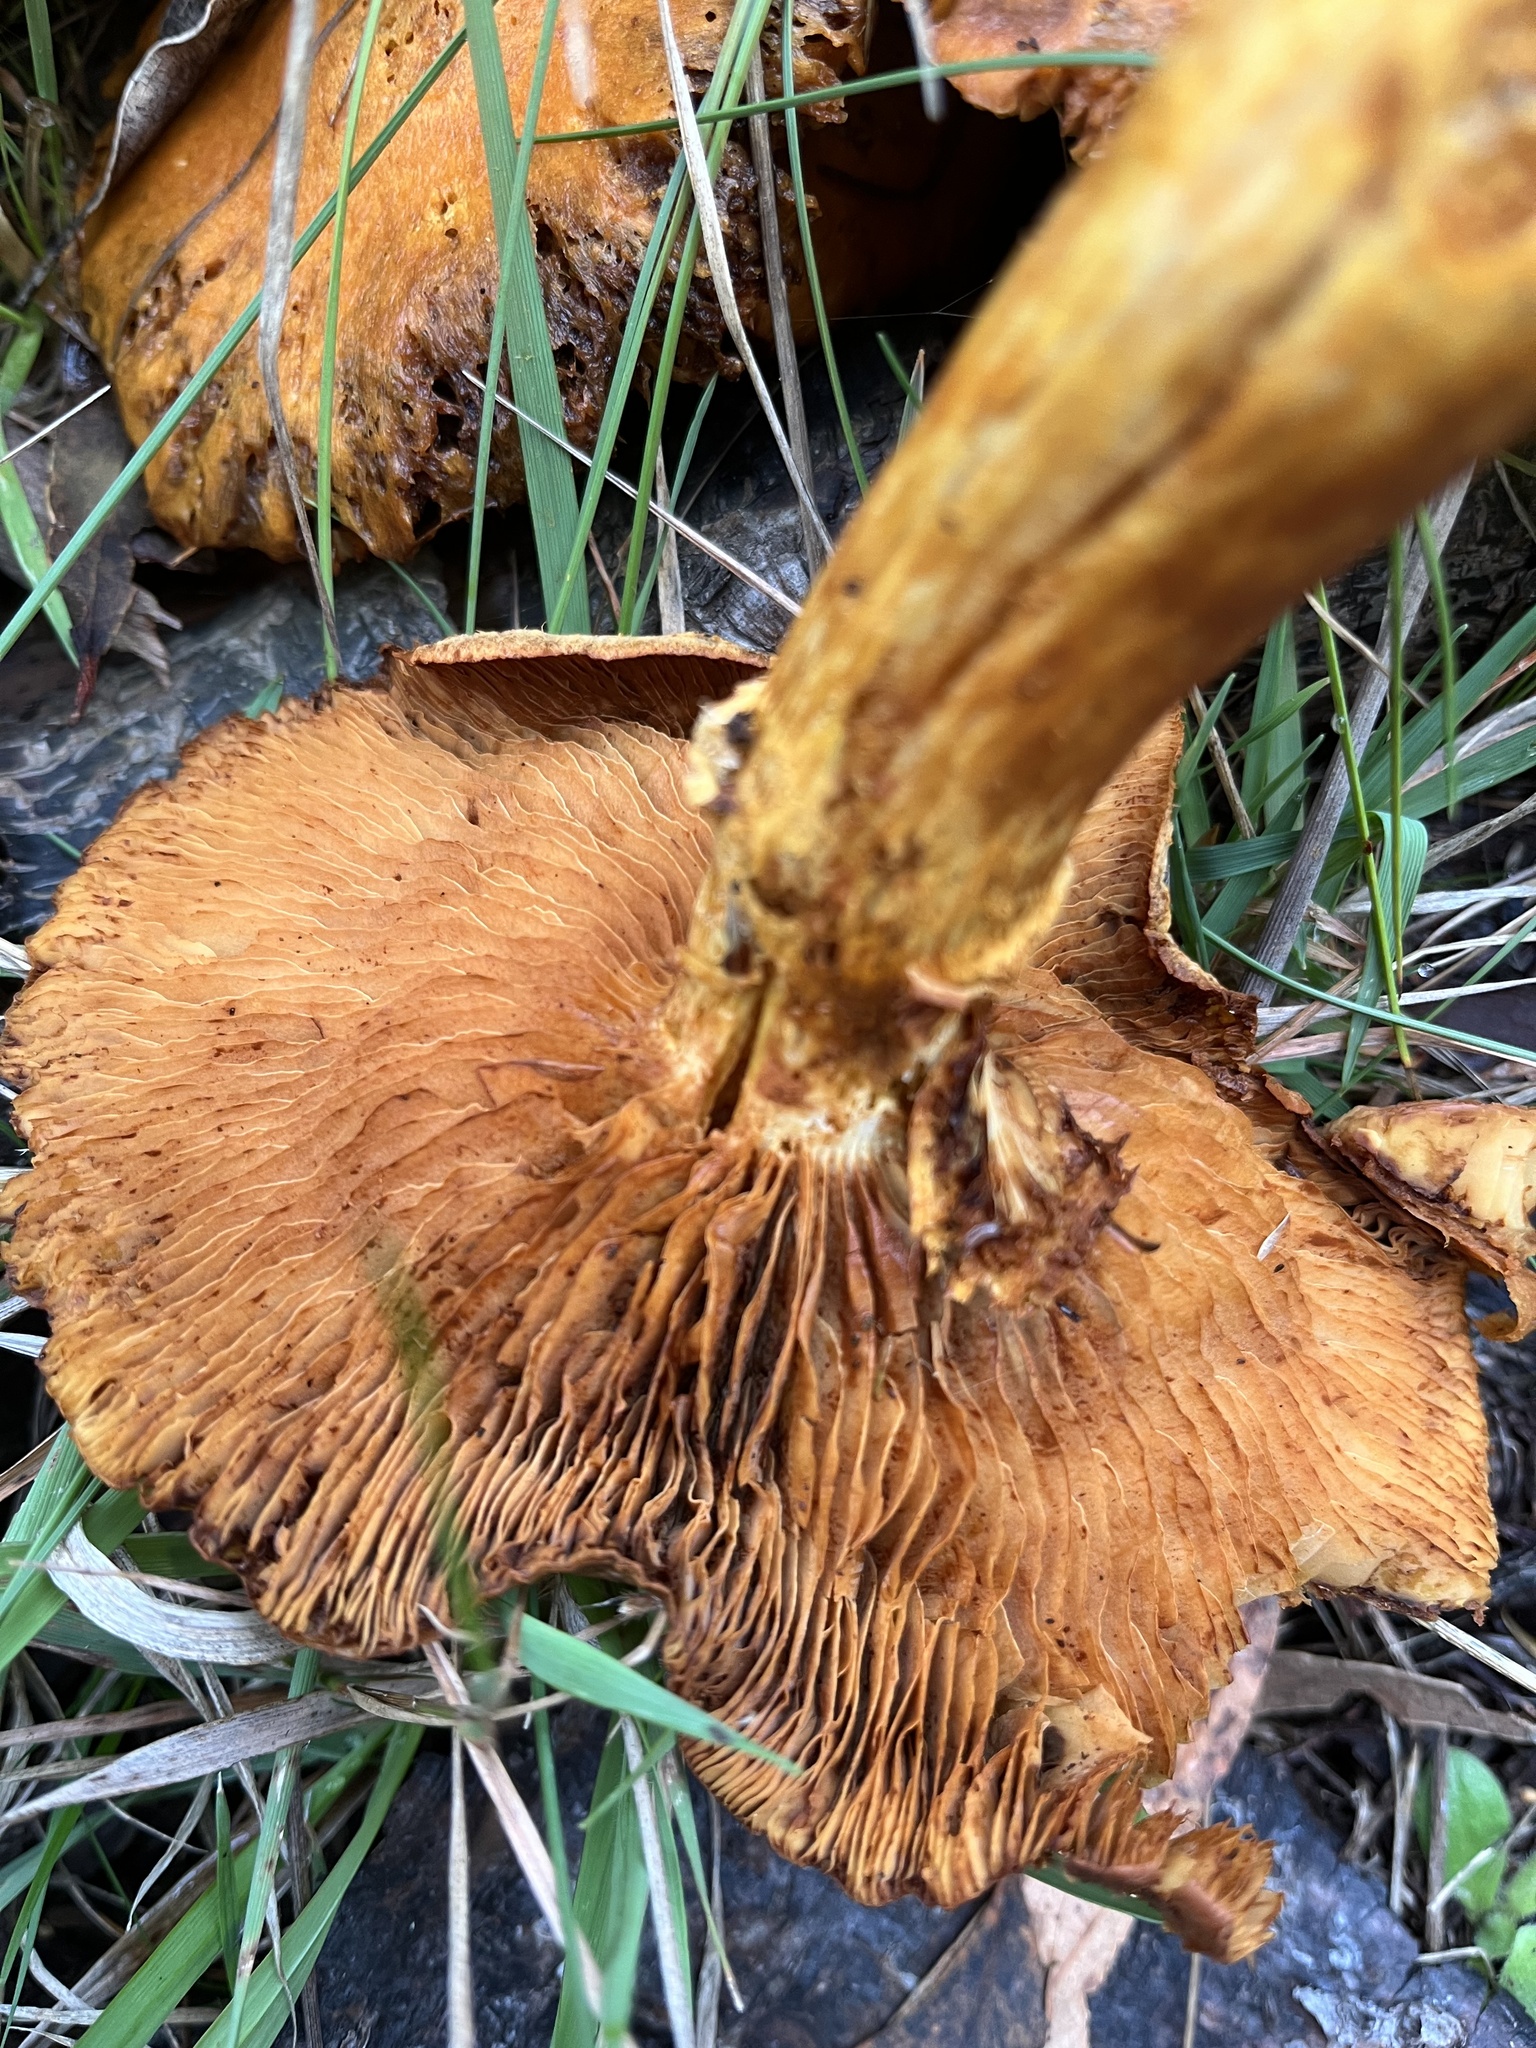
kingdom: Fungi
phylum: Basidiomycota
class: Agaricomycetes
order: Agaricales
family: Hymenogastraceae
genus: Gymnopilus
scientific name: Gymnopilus junonius
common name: Spectacular rustgill
